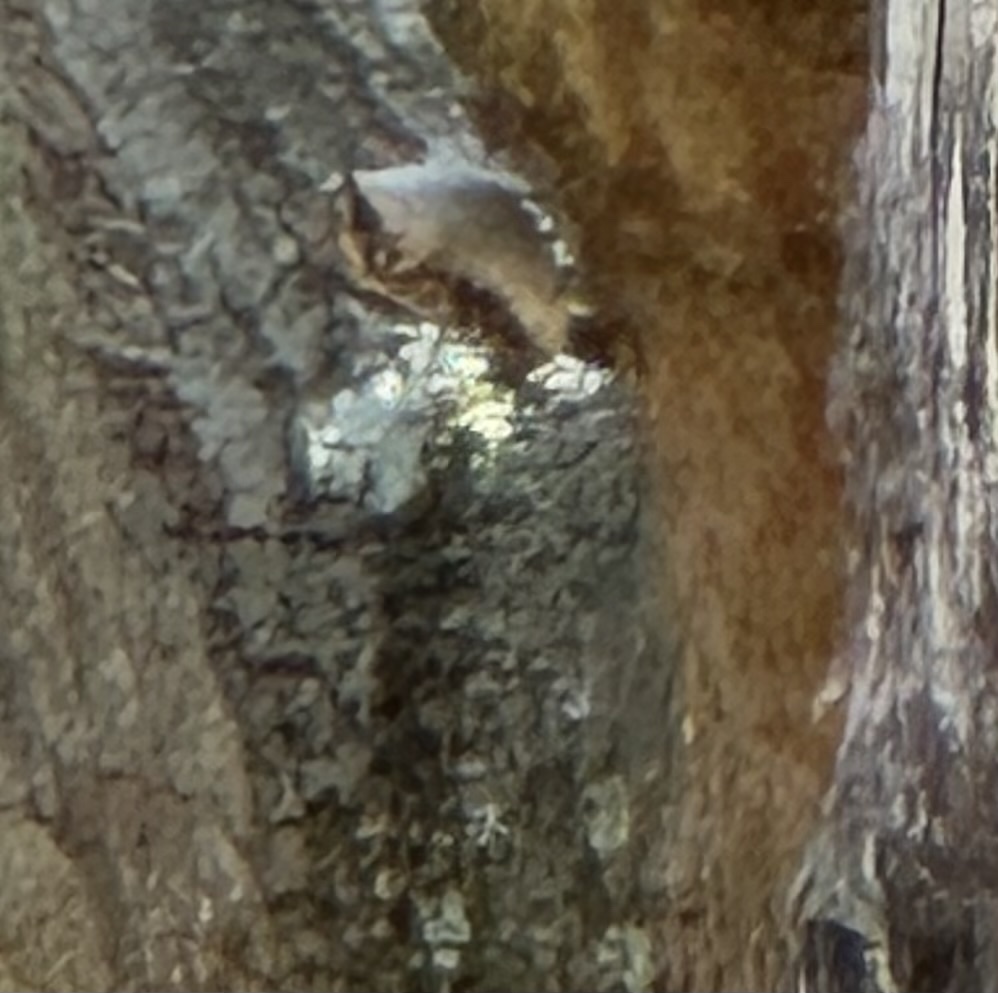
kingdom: Animalia
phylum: Chordata
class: Aves
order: Passeriformes
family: Certhiidae
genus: Certhia
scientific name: Certhia americana
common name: Brown creeper
